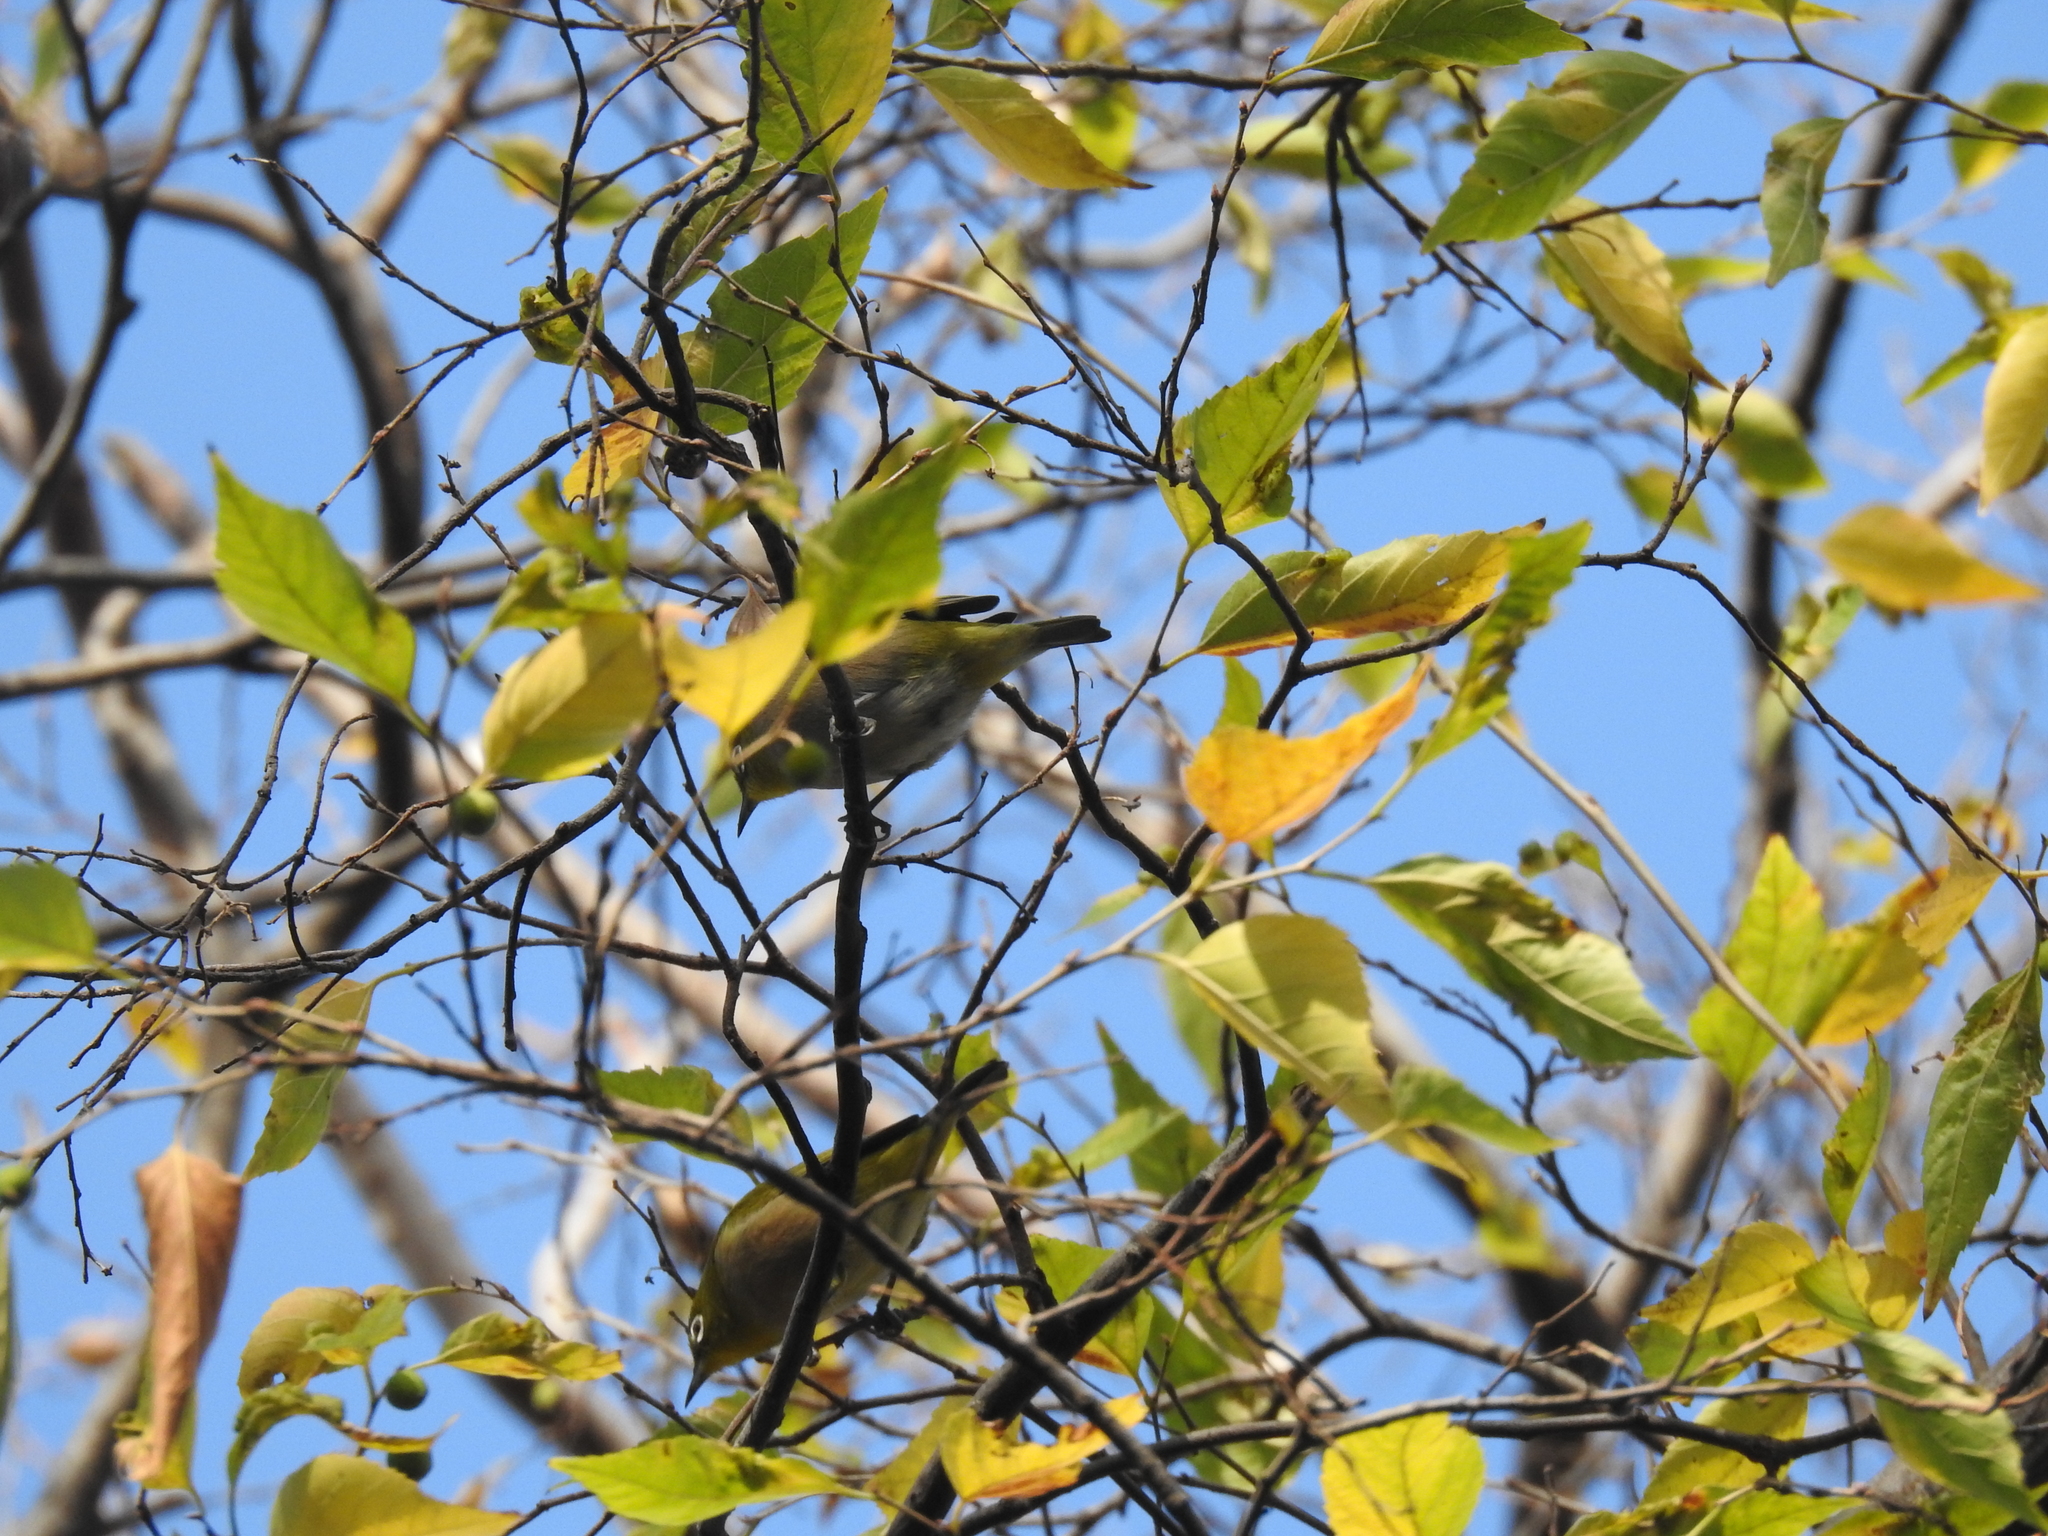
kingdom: Animalia
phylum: Chordata
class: Aves
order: Passeriformes
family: Zosteropidae
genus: Zosterops
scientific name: Zosterops japonicus
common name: Japanese white-eye
